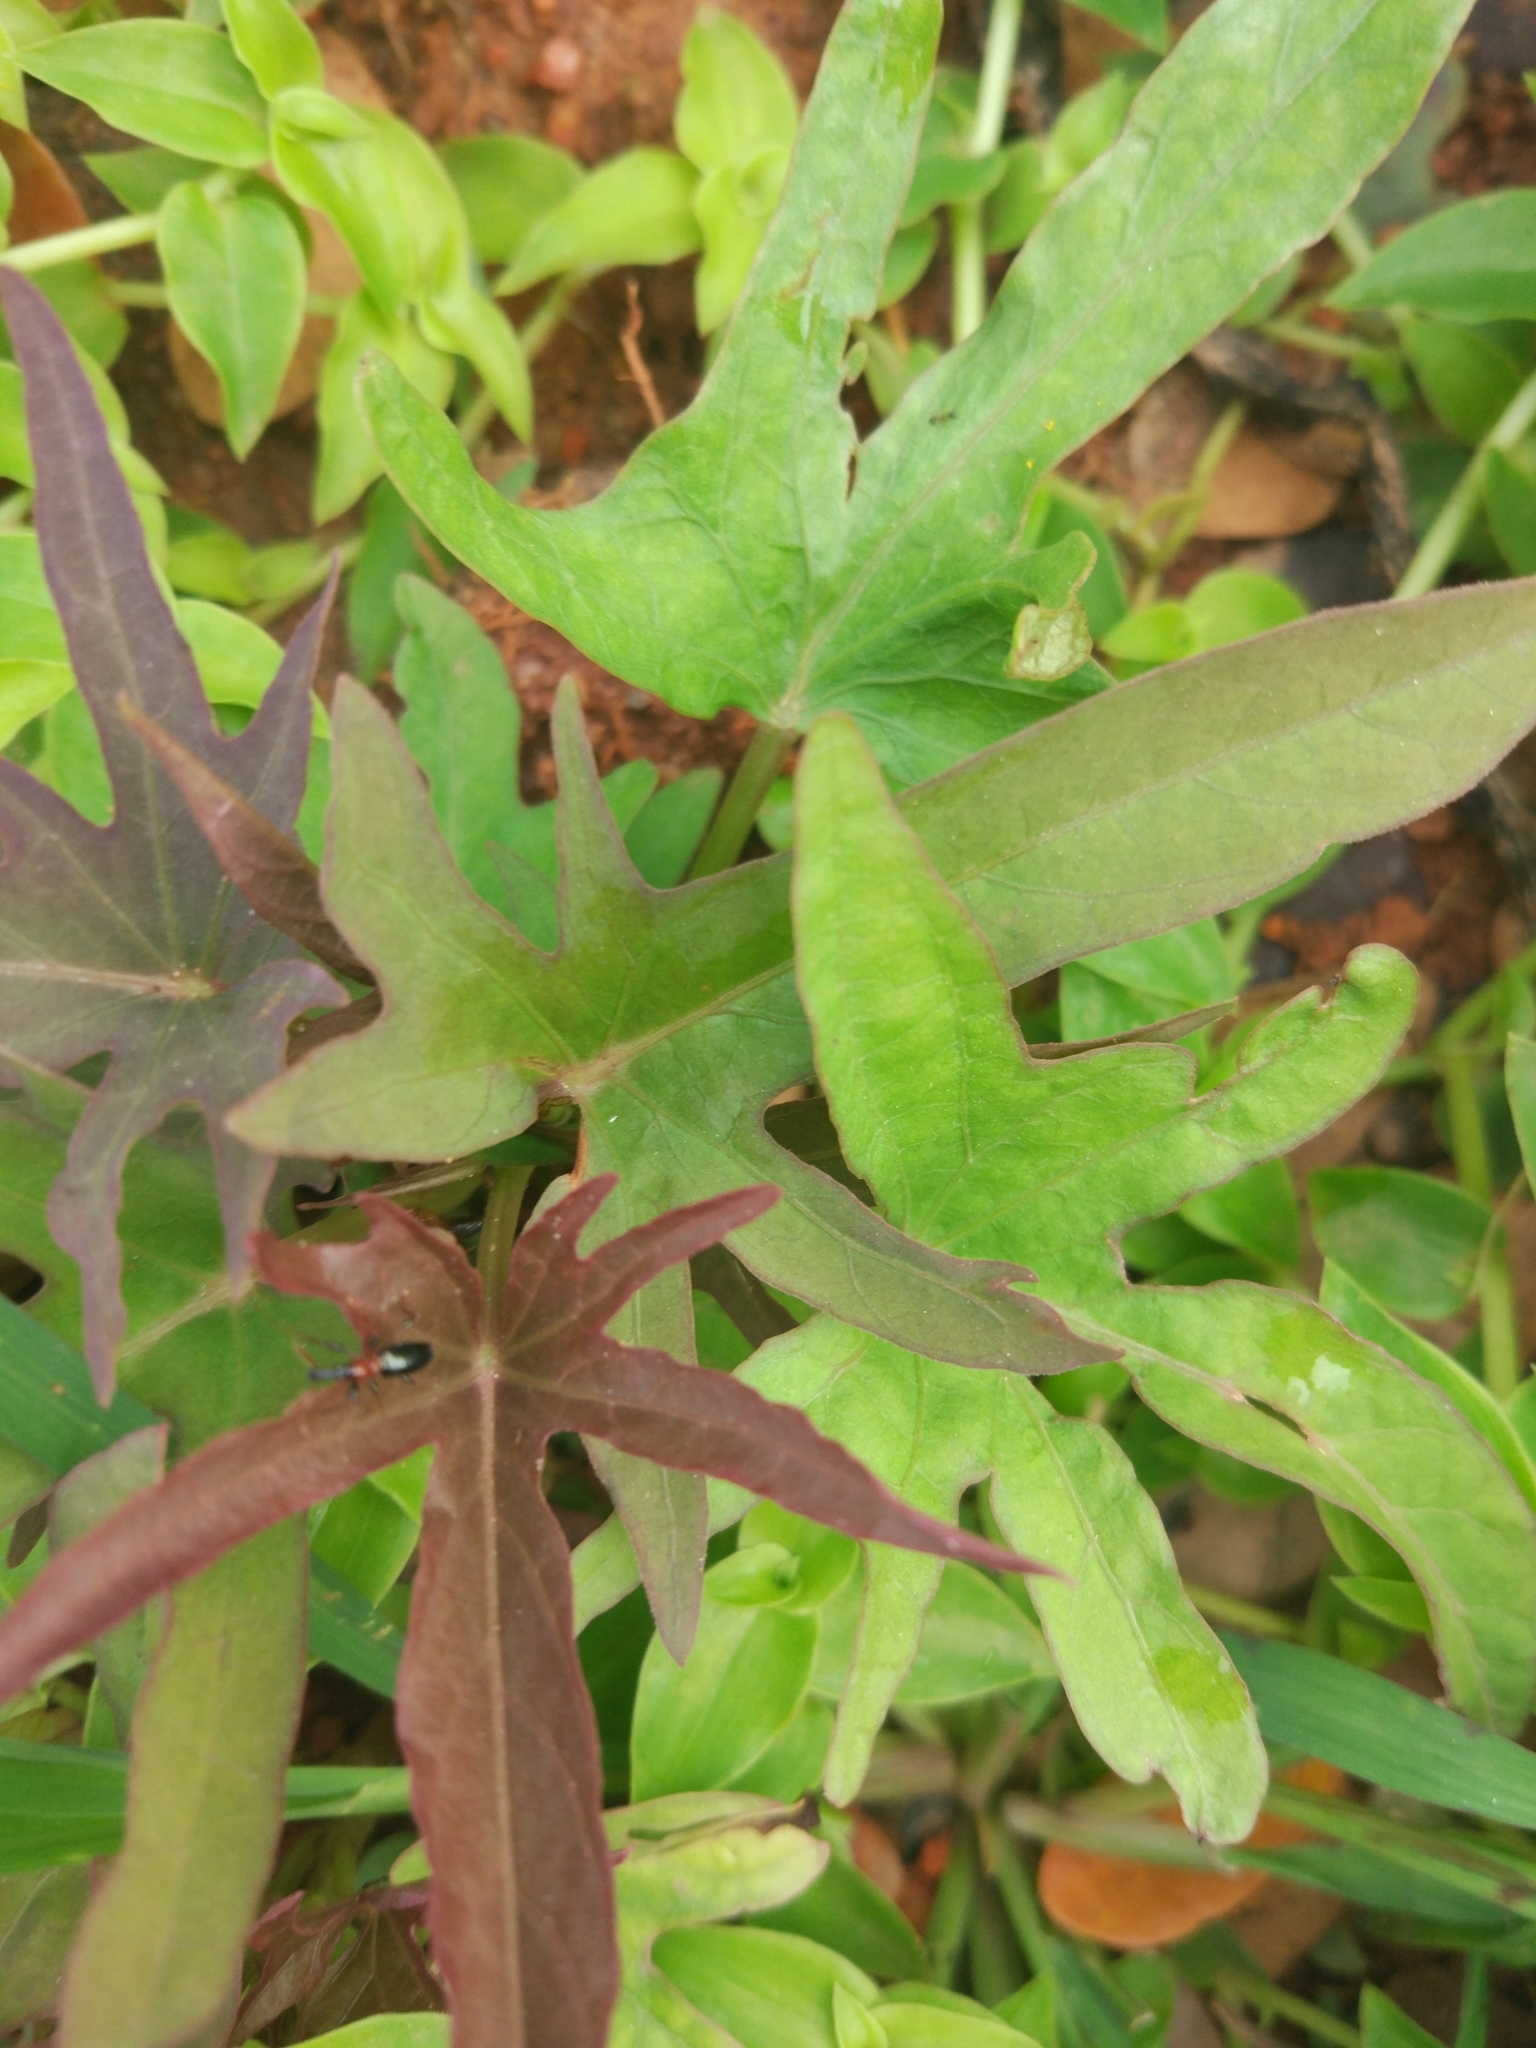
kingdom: Animalia
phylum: Arthropoda
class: Insecta
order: Coleoptera
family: Brentidae
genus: Cylas
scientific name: Cylas formicarius
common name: Sweetpotato weevil
